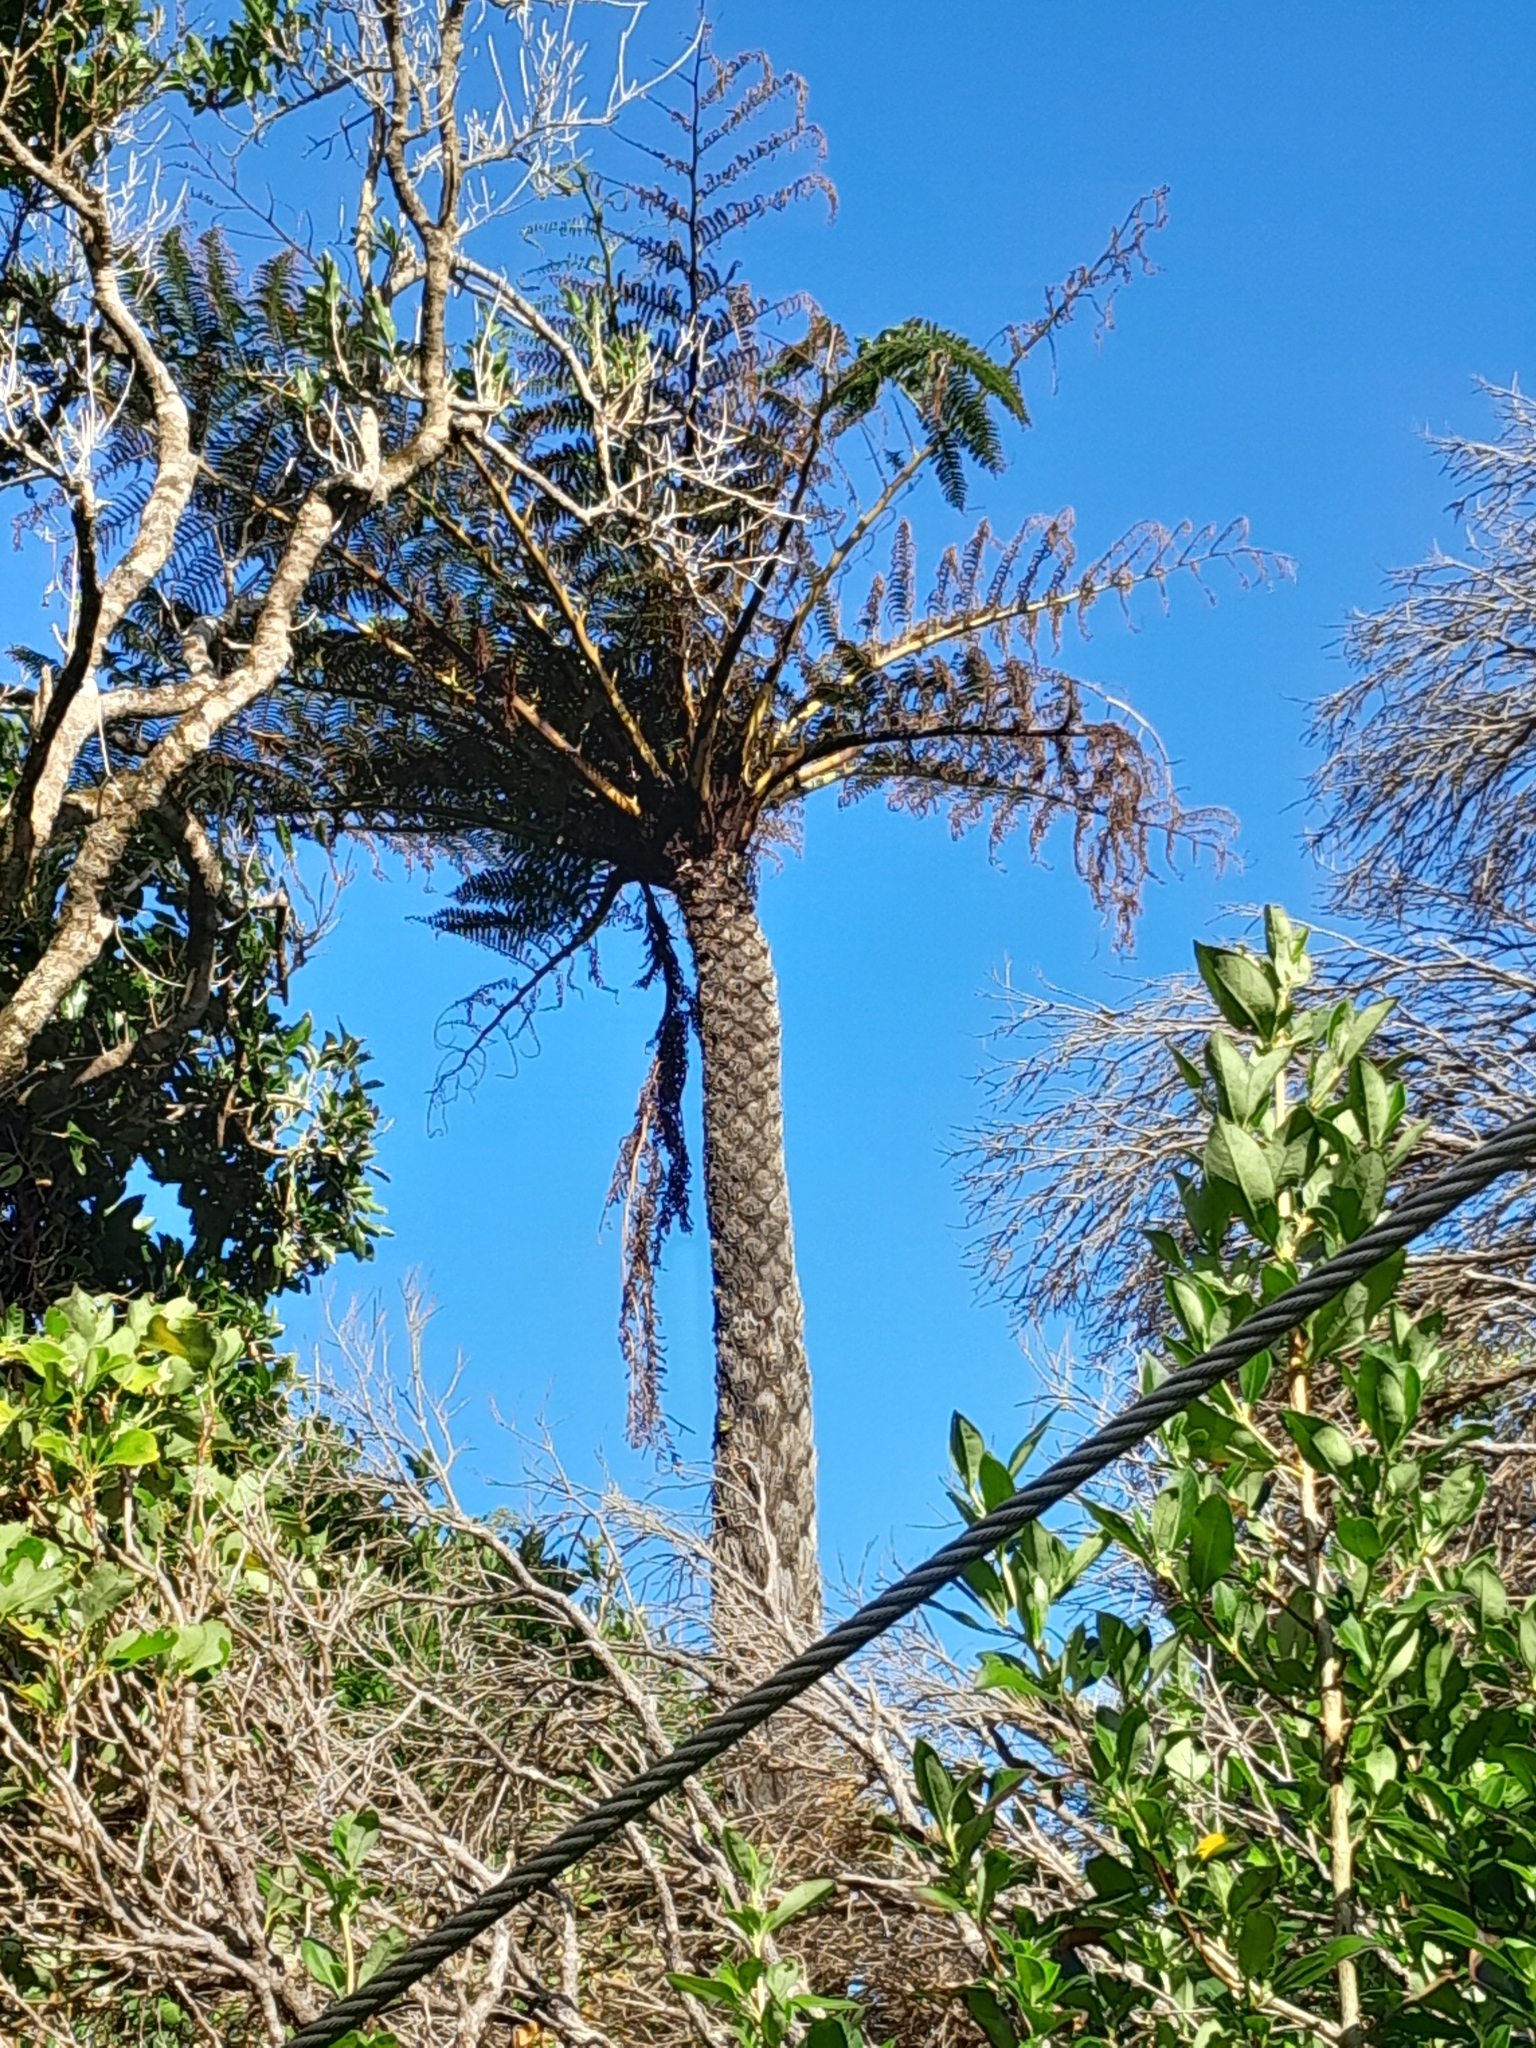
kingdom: Plantae
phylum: Tracheophyta
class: Polypodiopsida
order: Cyatheales
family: Cyatheaceae
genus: Sphaeropteris
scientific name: Sphaeropteris medullaris
